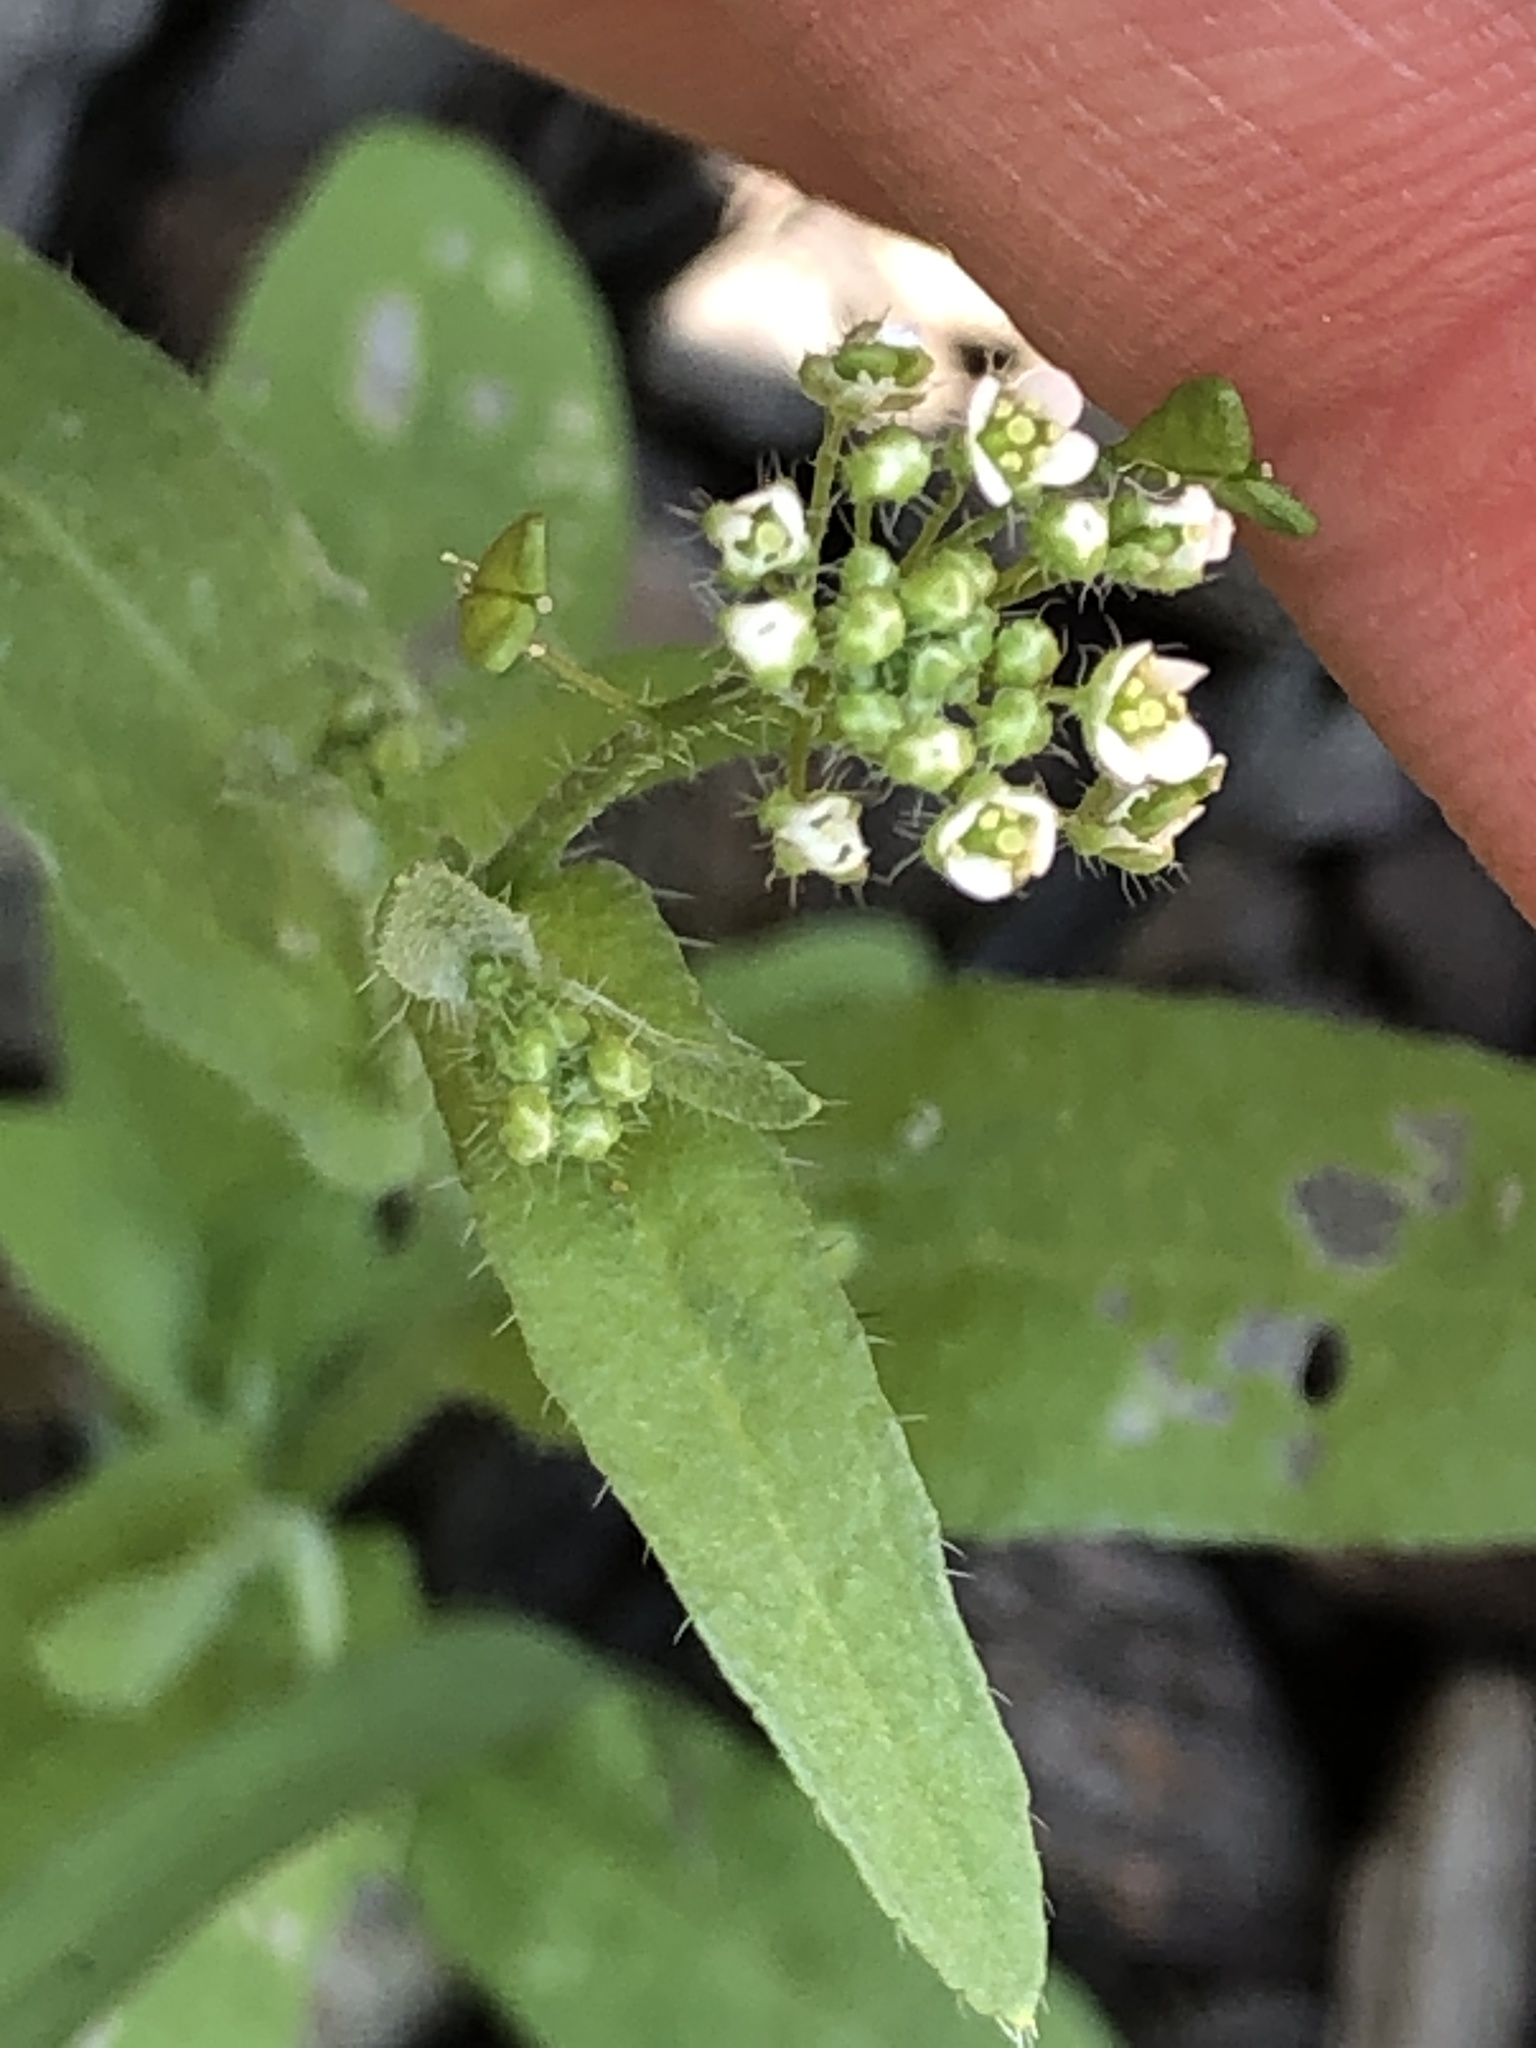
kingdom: Plantae
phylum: Tracheophyta
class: Magnoliopsida
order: Brassicales
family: Brassicaceae
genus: Capsella
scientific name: Capsella bursa-pastoris
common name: Shepherd's purse
